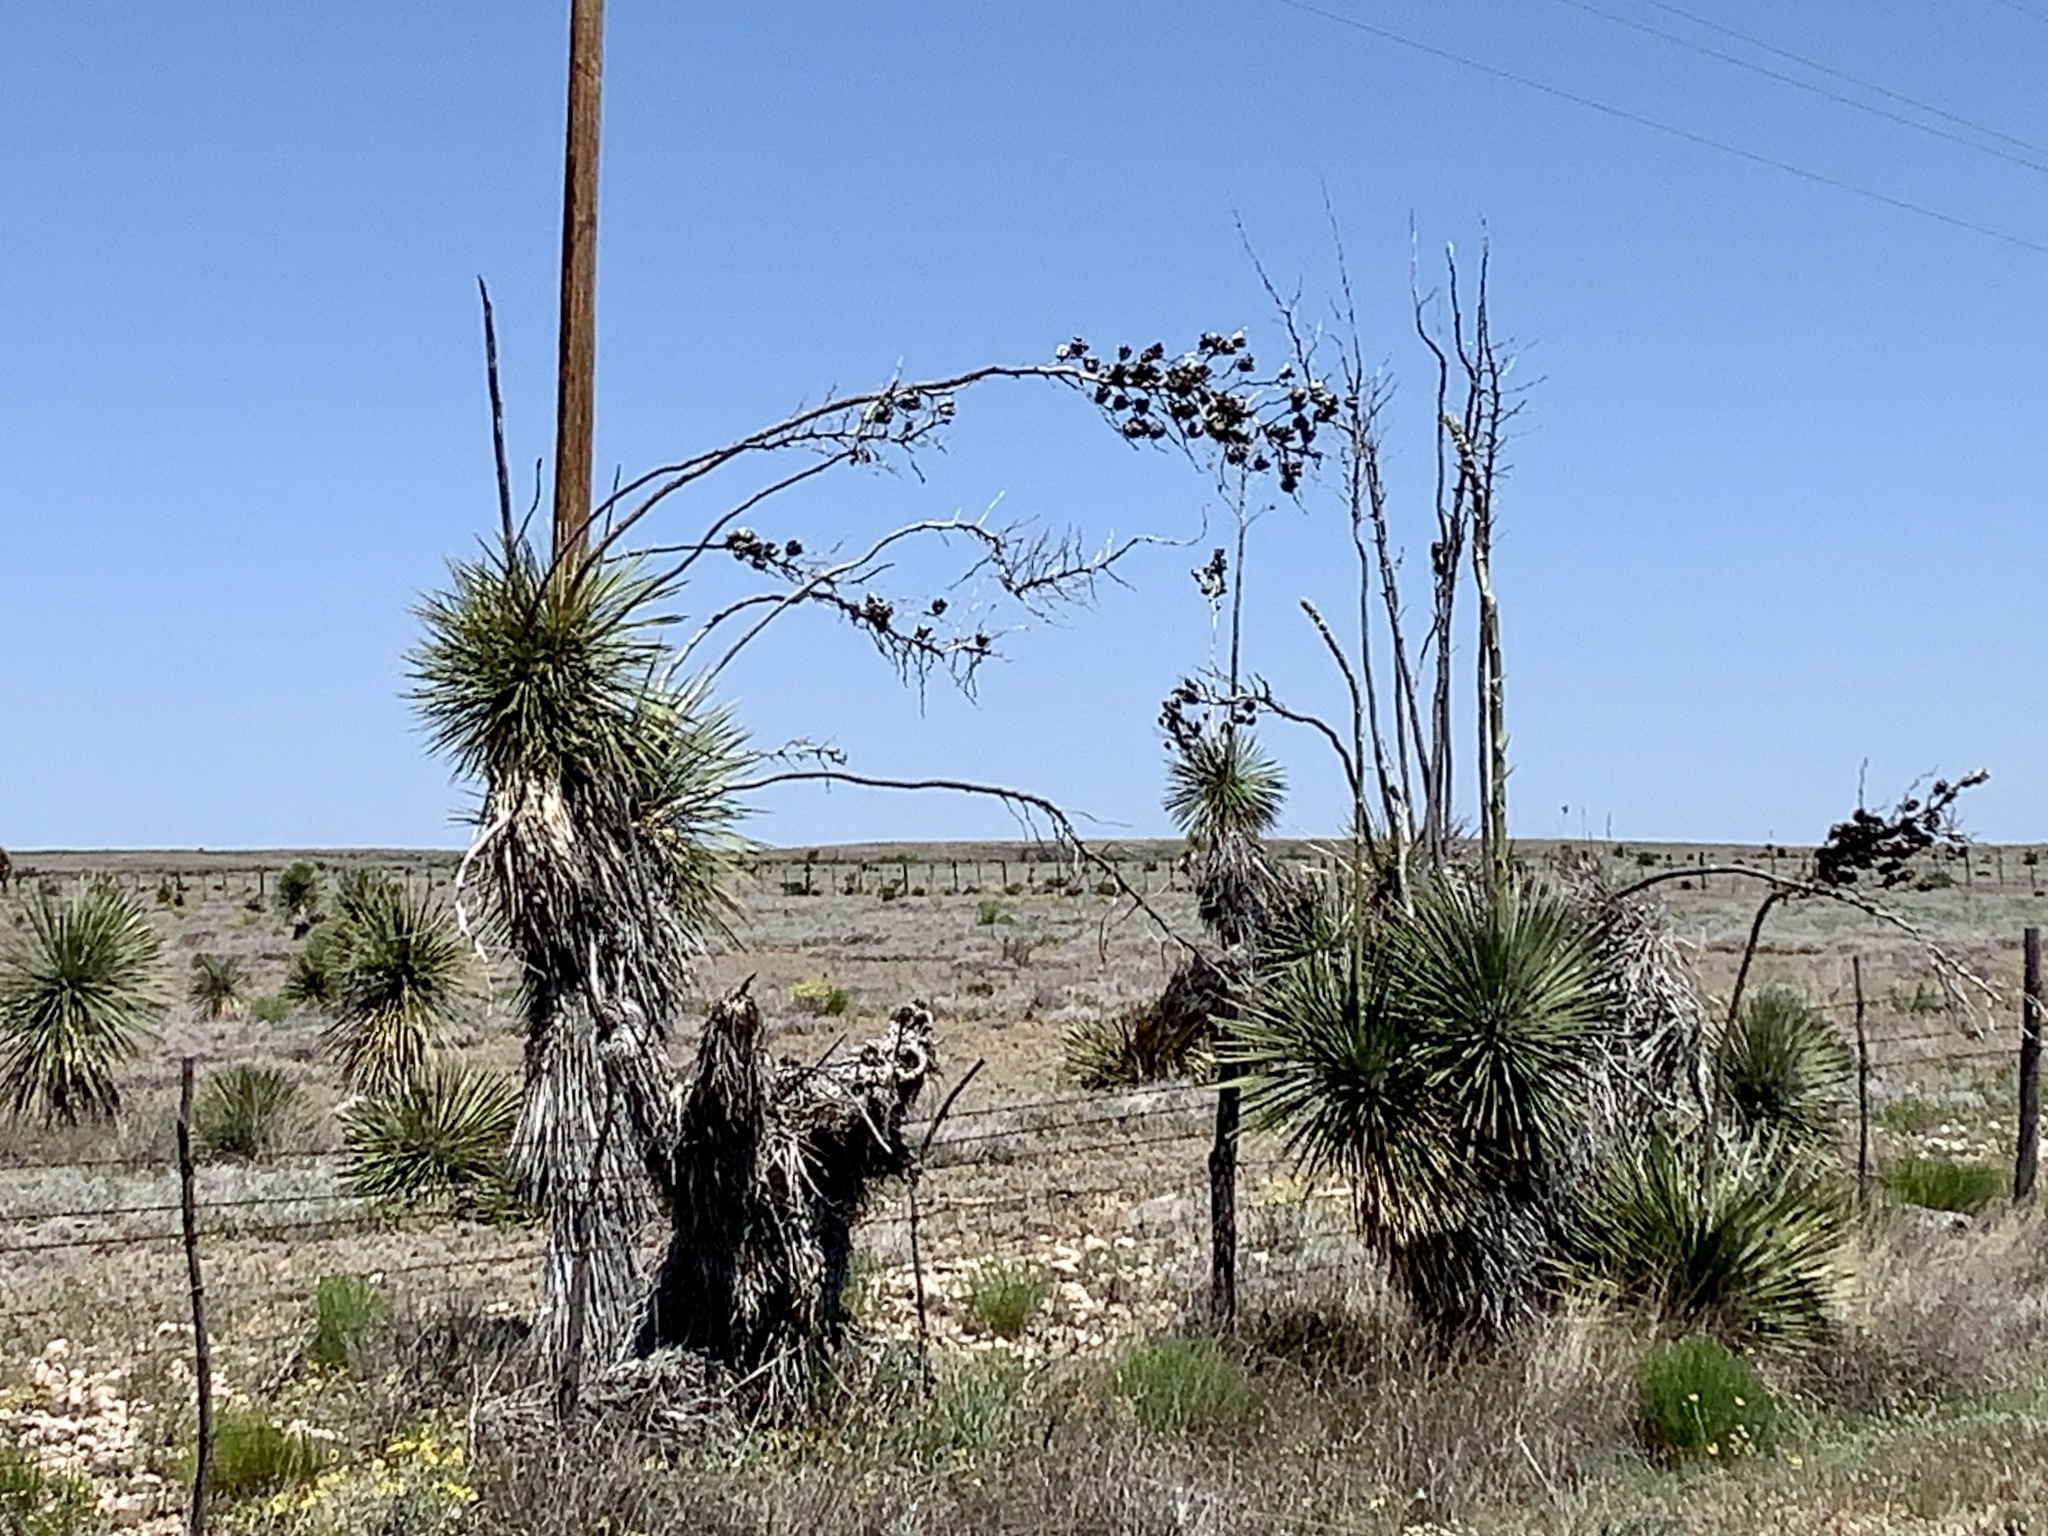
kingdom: Plantae
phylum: Tracheophyta
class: Liliopsida
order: Asparagales
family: Asparagaceae
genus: Yucca
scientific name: Yucca elata
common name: Palmella
